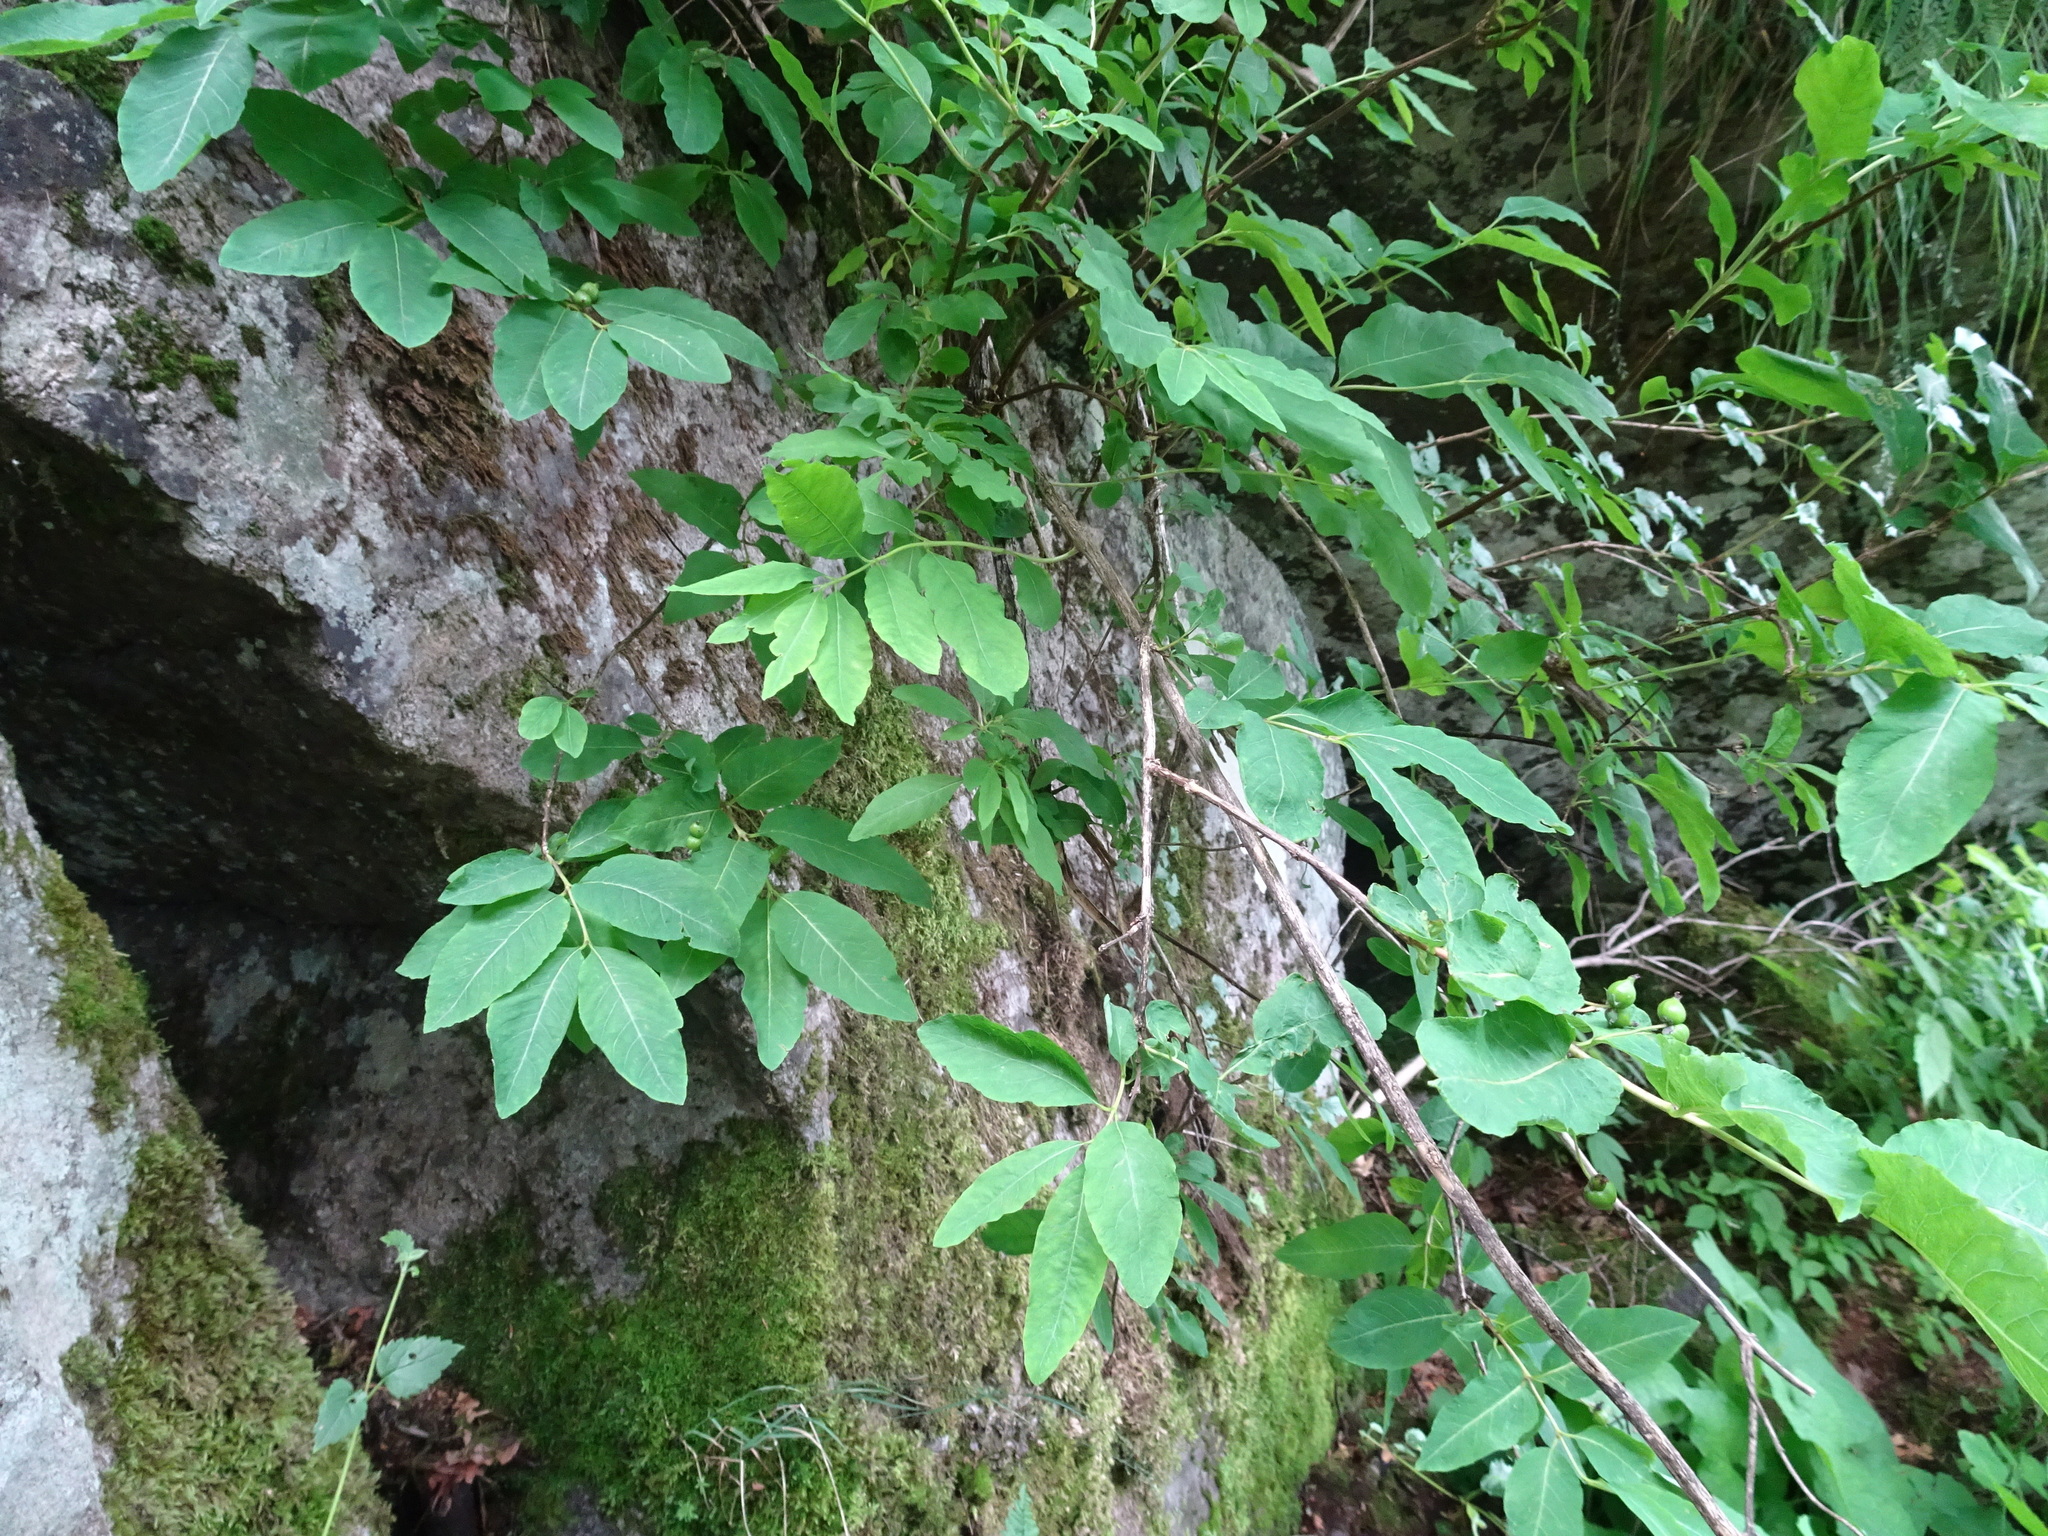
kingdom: Plantae
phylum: Tracheophyta
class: Magnoliopsida
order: Dipsacales
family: Caprifoliaceae
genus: Lonicera
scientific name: Lonicera nigra
